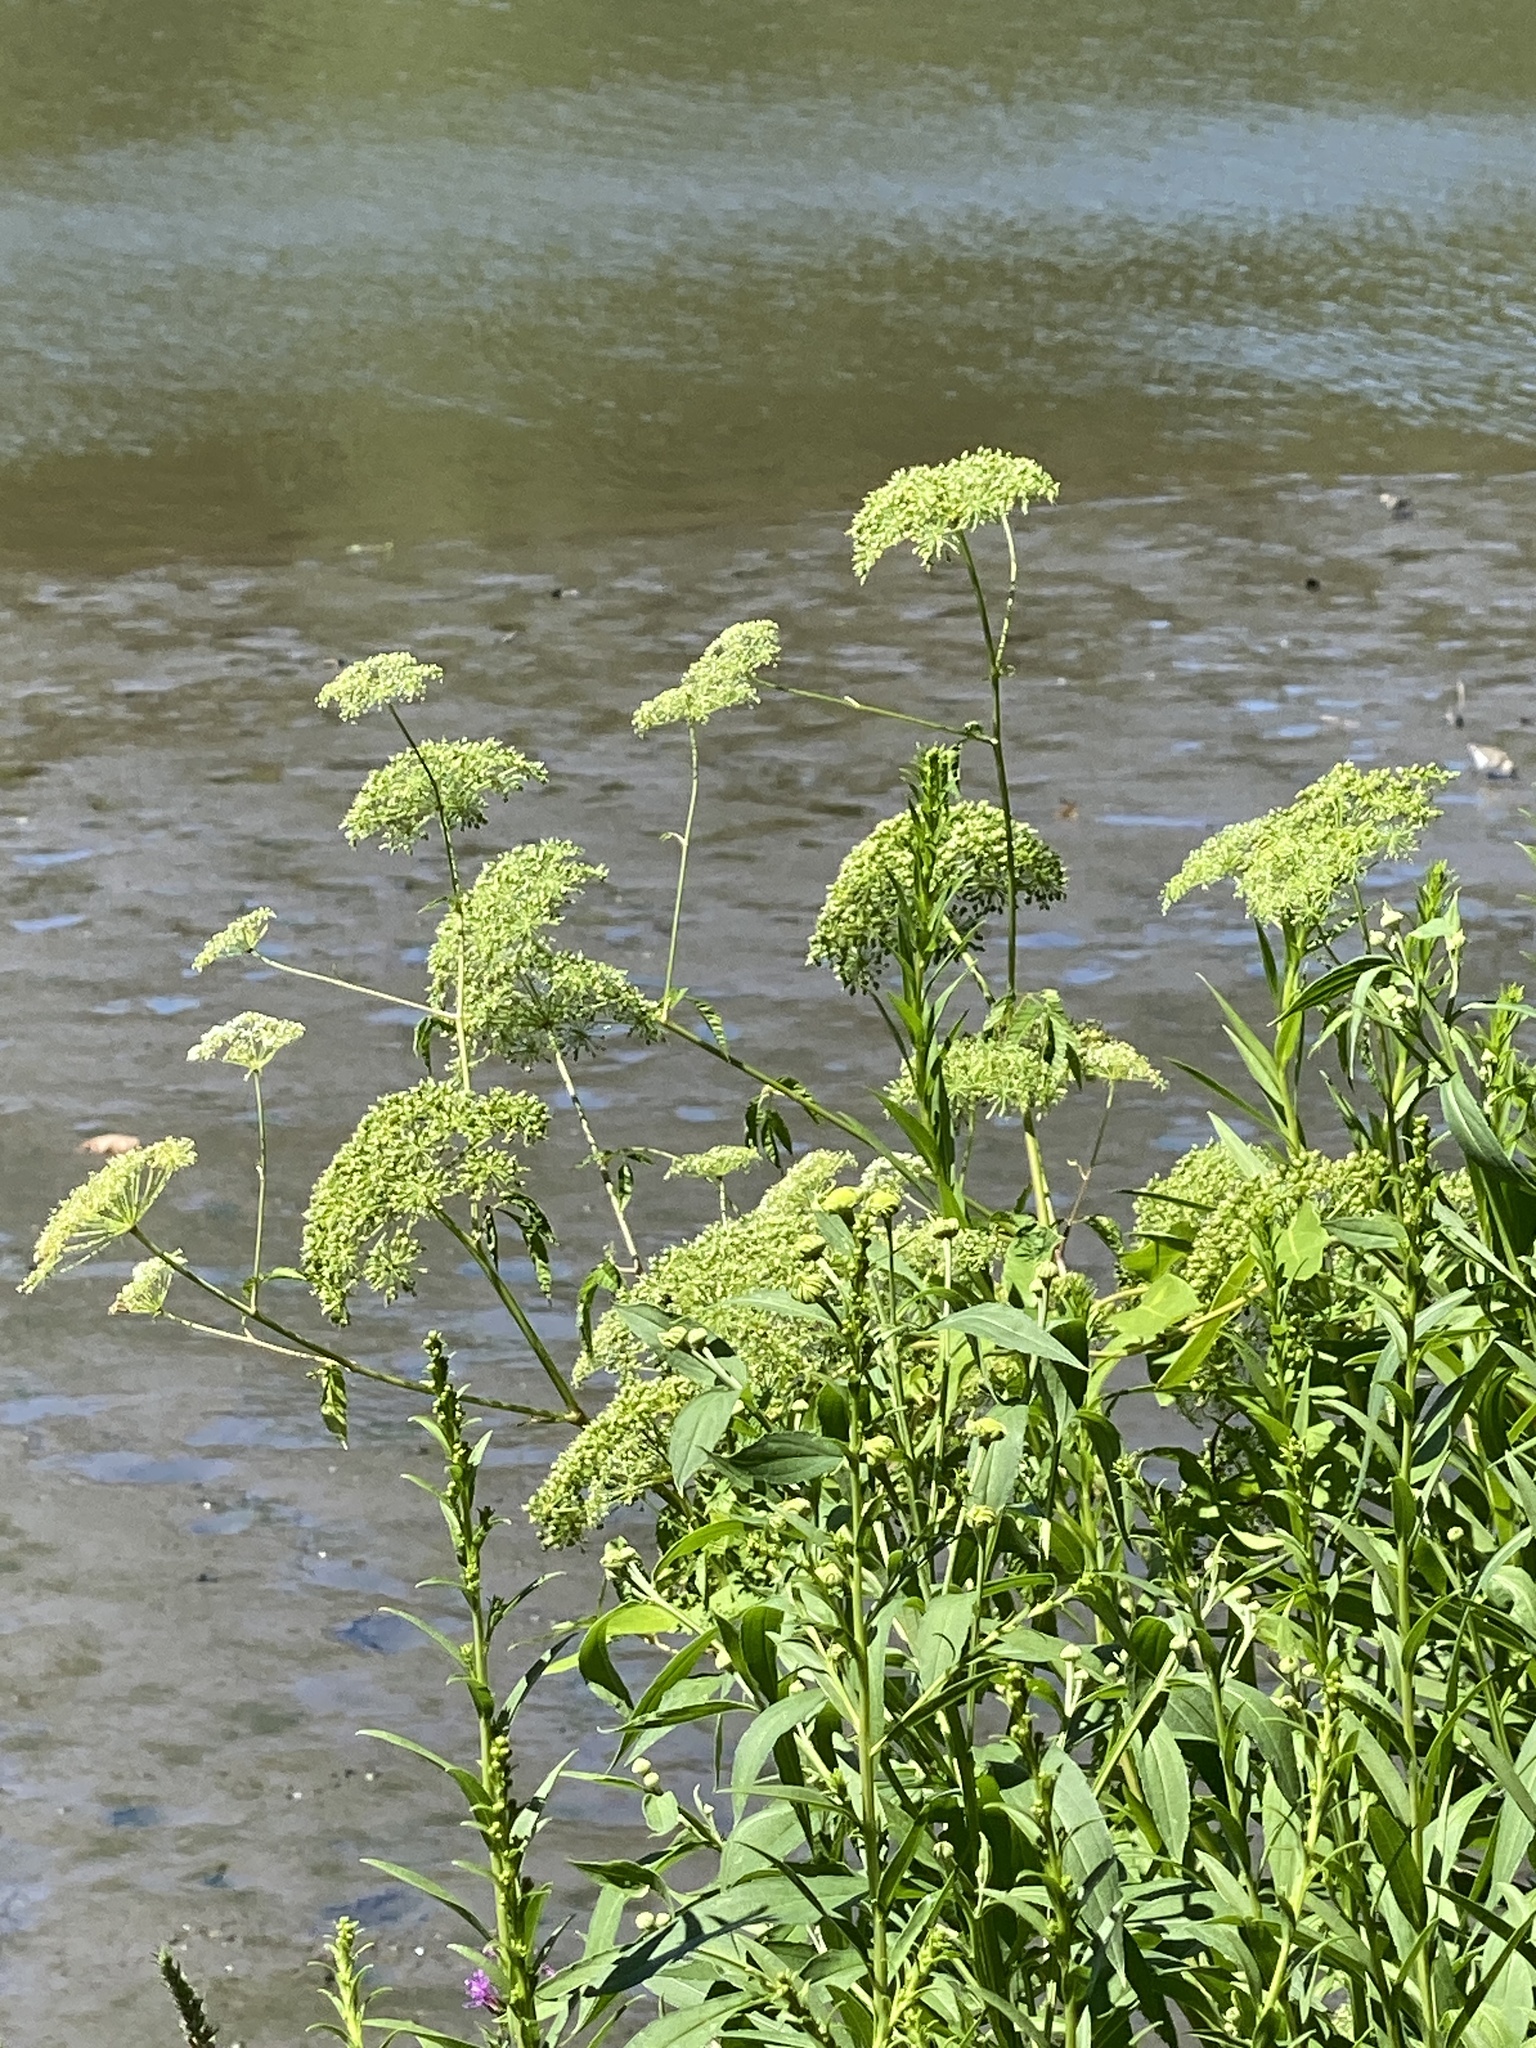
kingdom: Plantae
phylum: Tracheophyta
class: Magnoliopsida
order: Apiales
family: Apiaceae
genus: Cicuta
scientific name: Cicuta maculata
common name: Spotted cowbane
